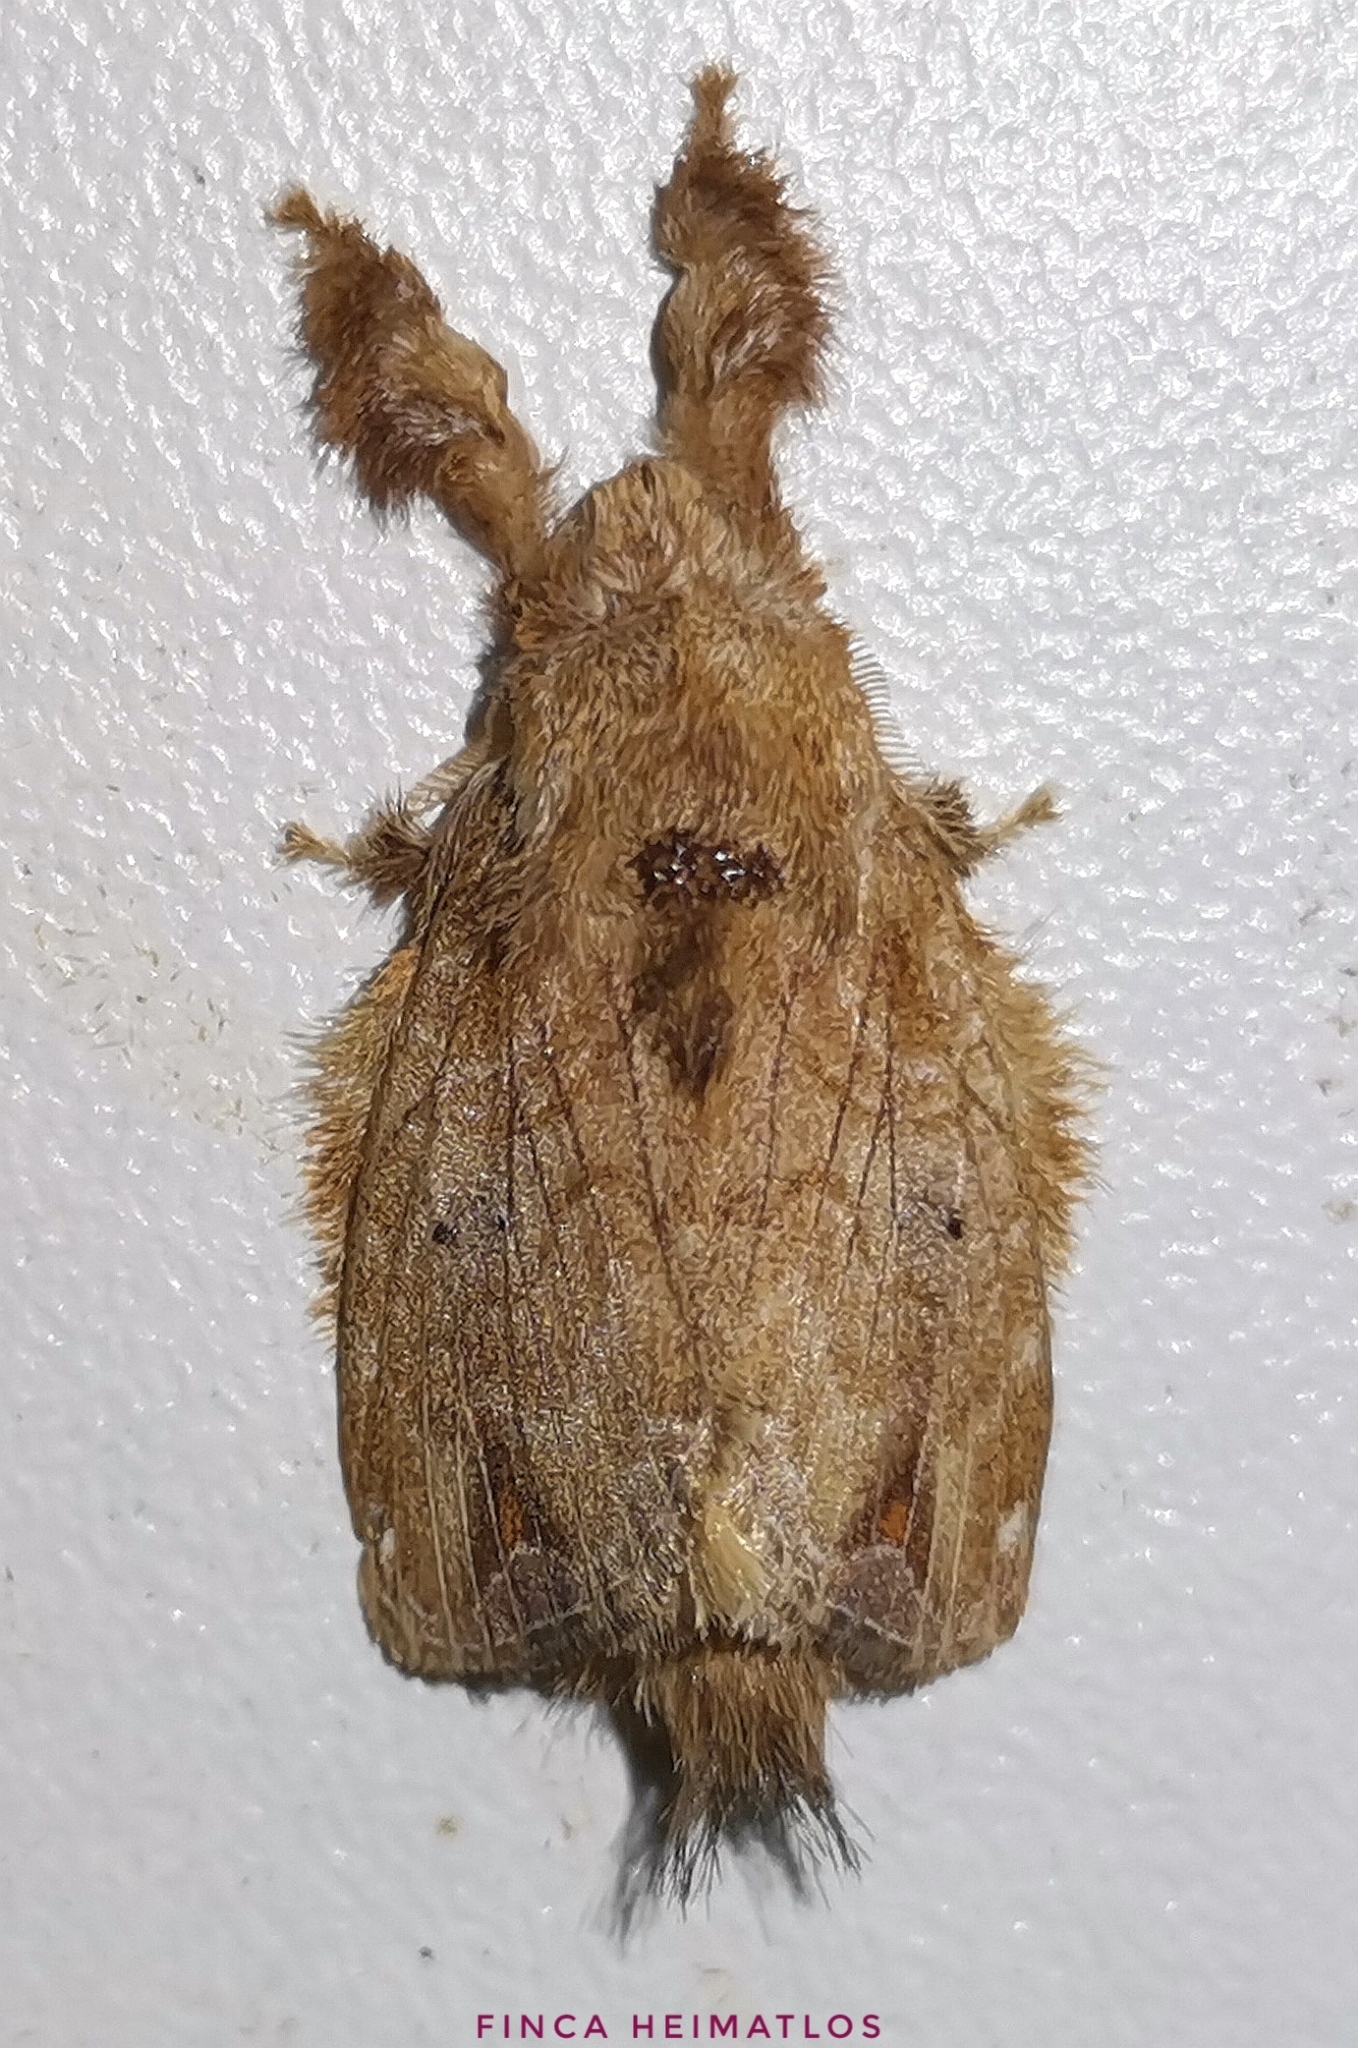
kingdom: Animalia
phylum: Arthropoda
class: Insecta
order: Lepidoptera
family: Lasiocampidae
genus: Nesara
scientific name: Nesara caramina
